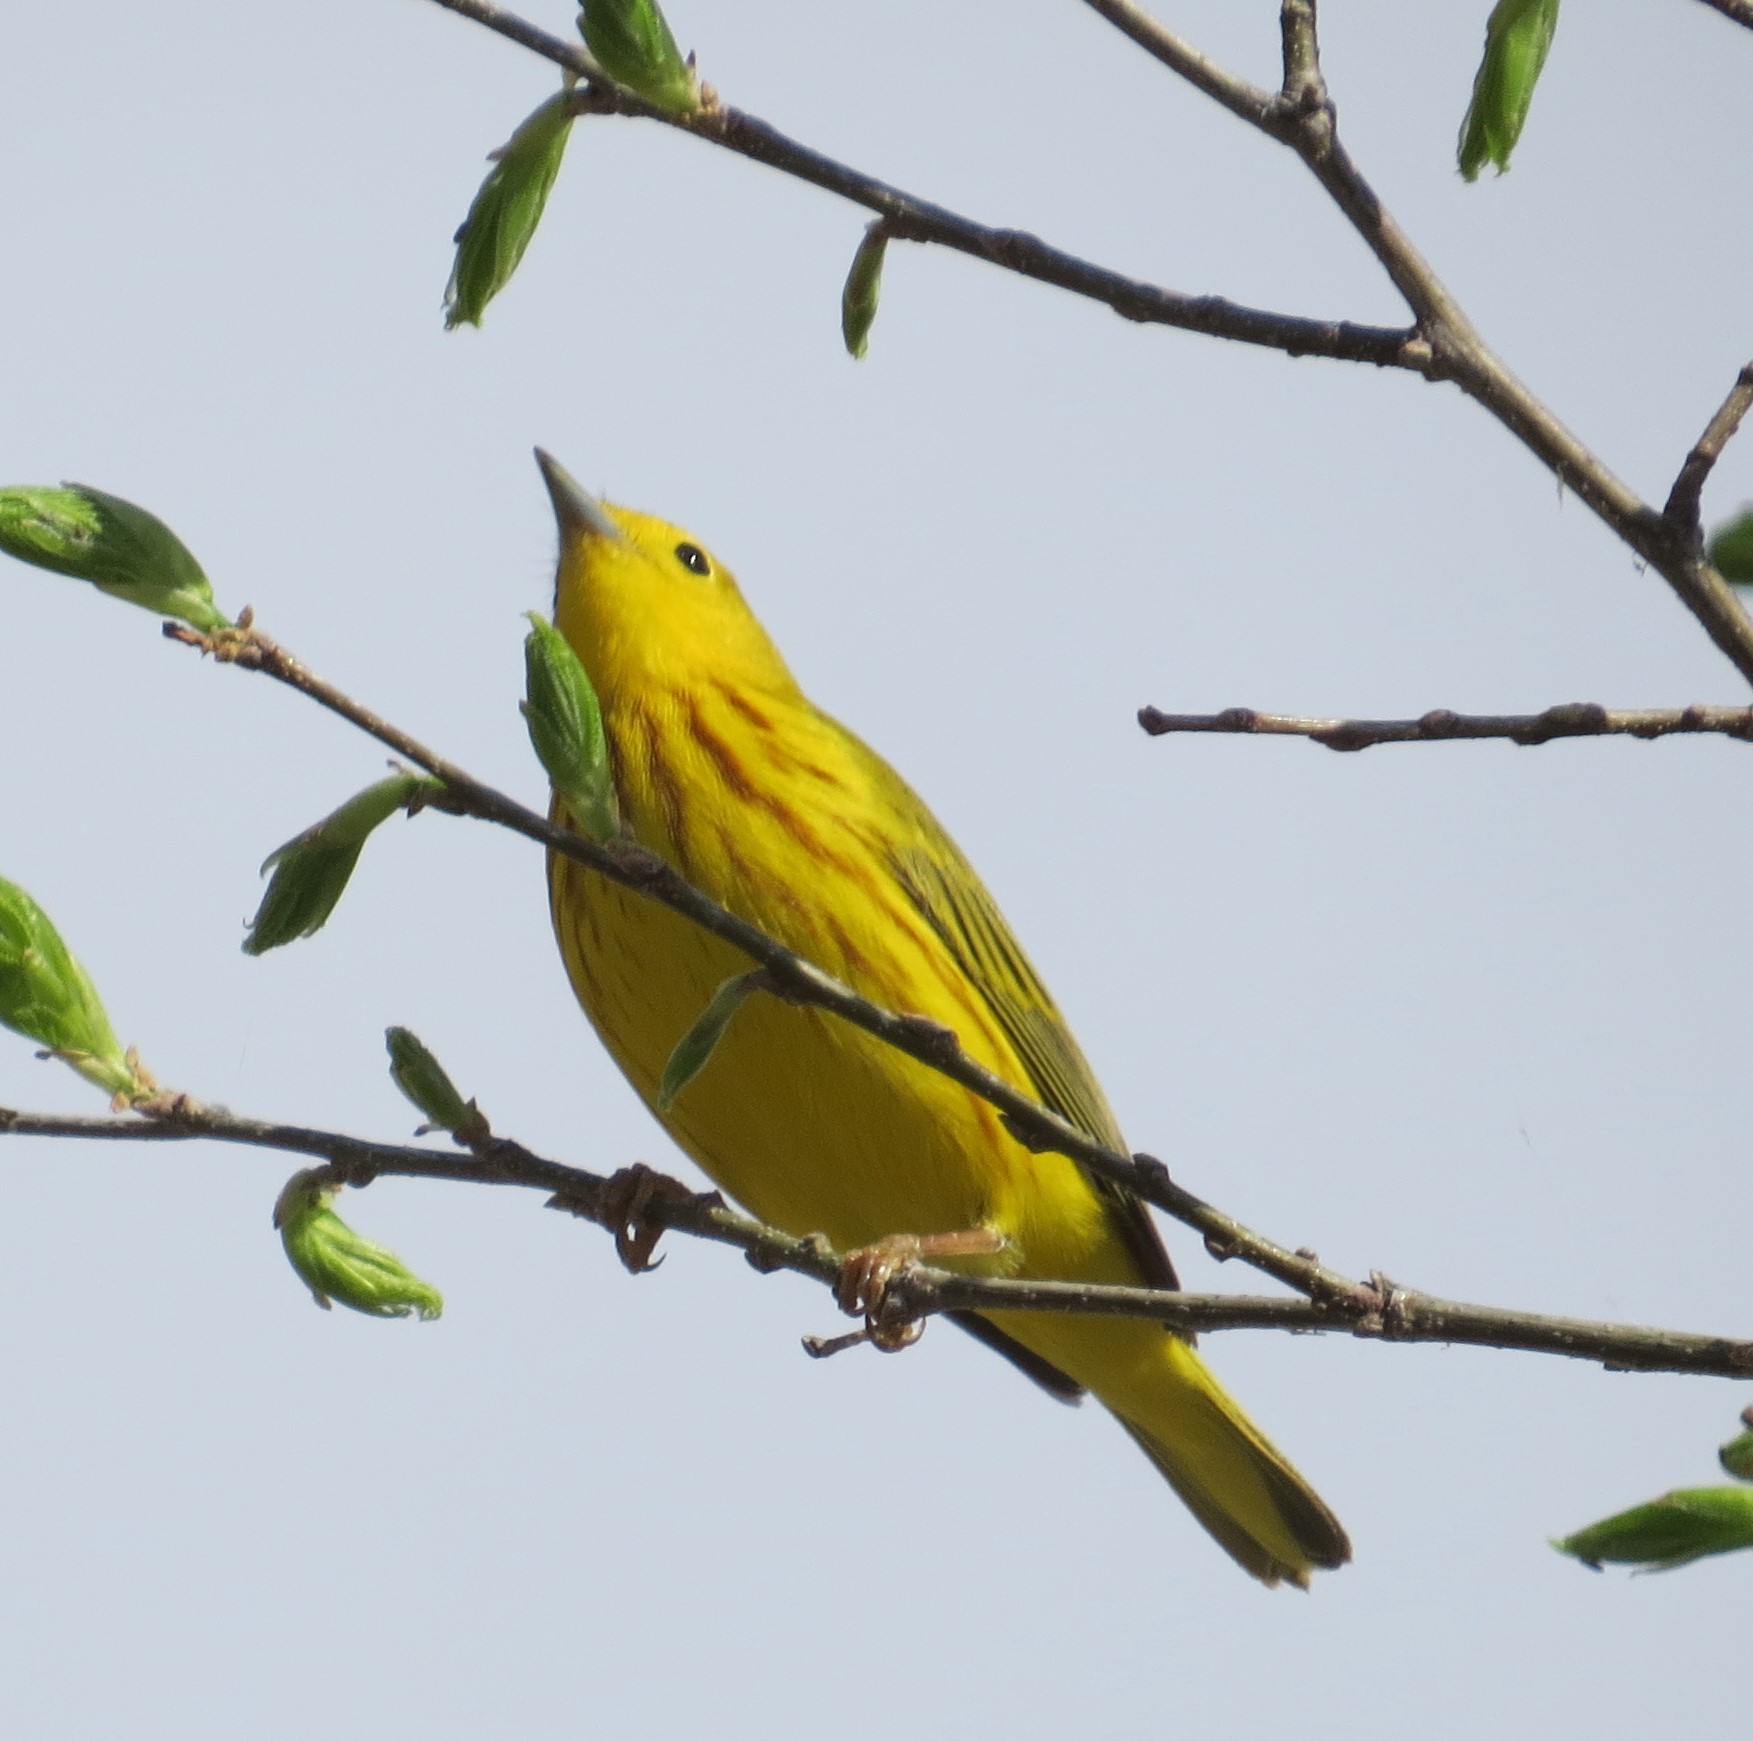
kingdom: Animalia
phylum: Chordata
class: Aves
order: Passeriformes
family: Parulidae
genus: Setophaga
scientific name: Setophaga petechia
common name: Yellow warbler
